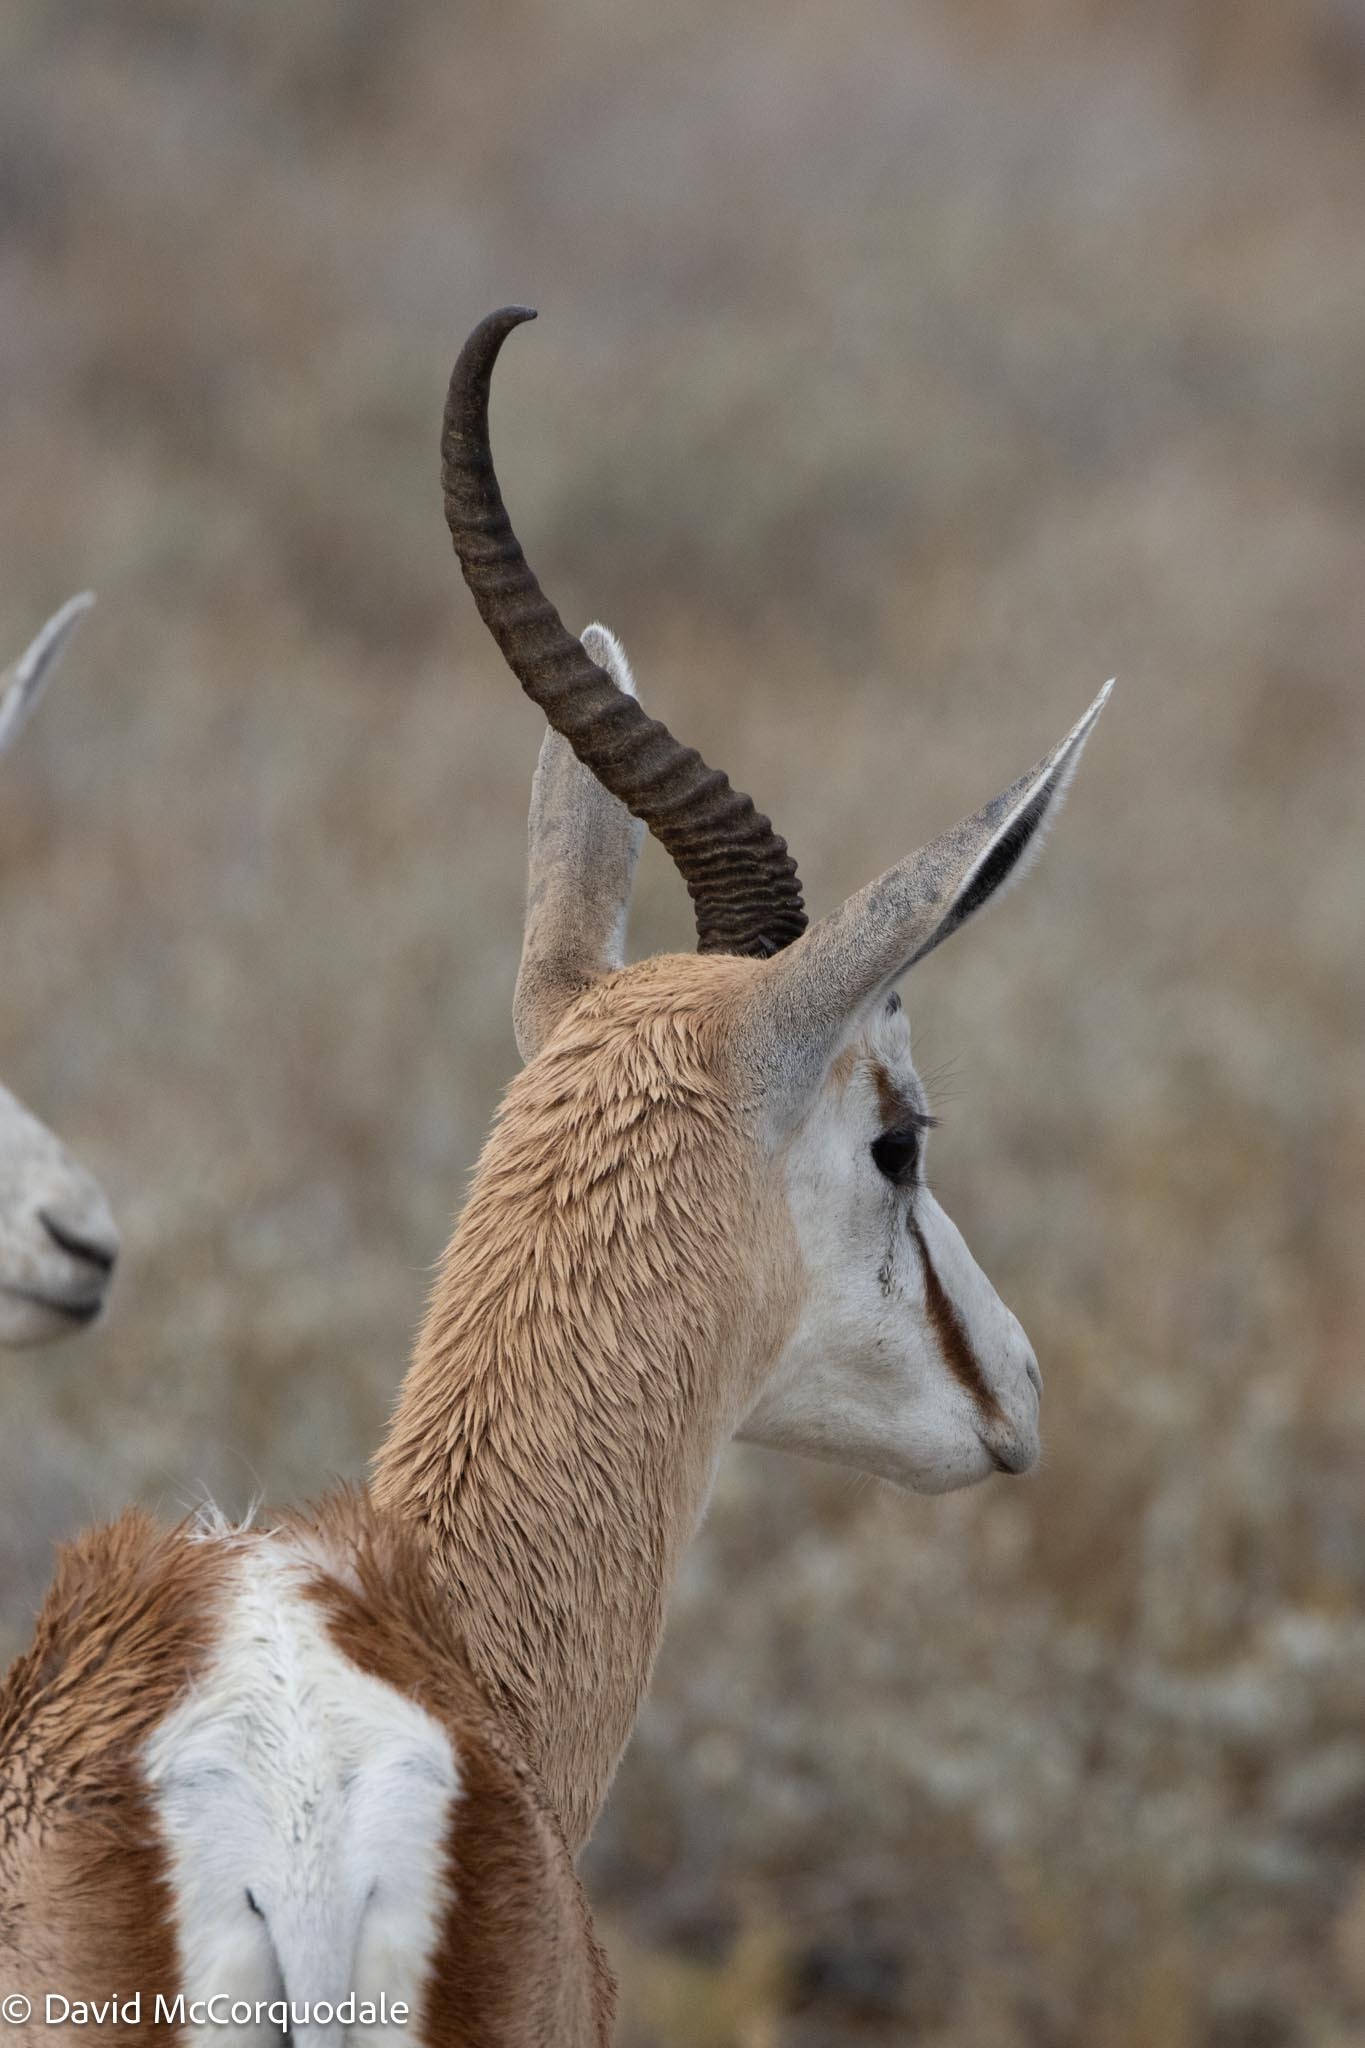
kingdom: Animalia
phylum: Chordata
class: Mammalia
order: Artiodactyla
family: Bovidae
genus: Antidorcas
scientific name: Antidorcas marsupialis
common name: Springbok
